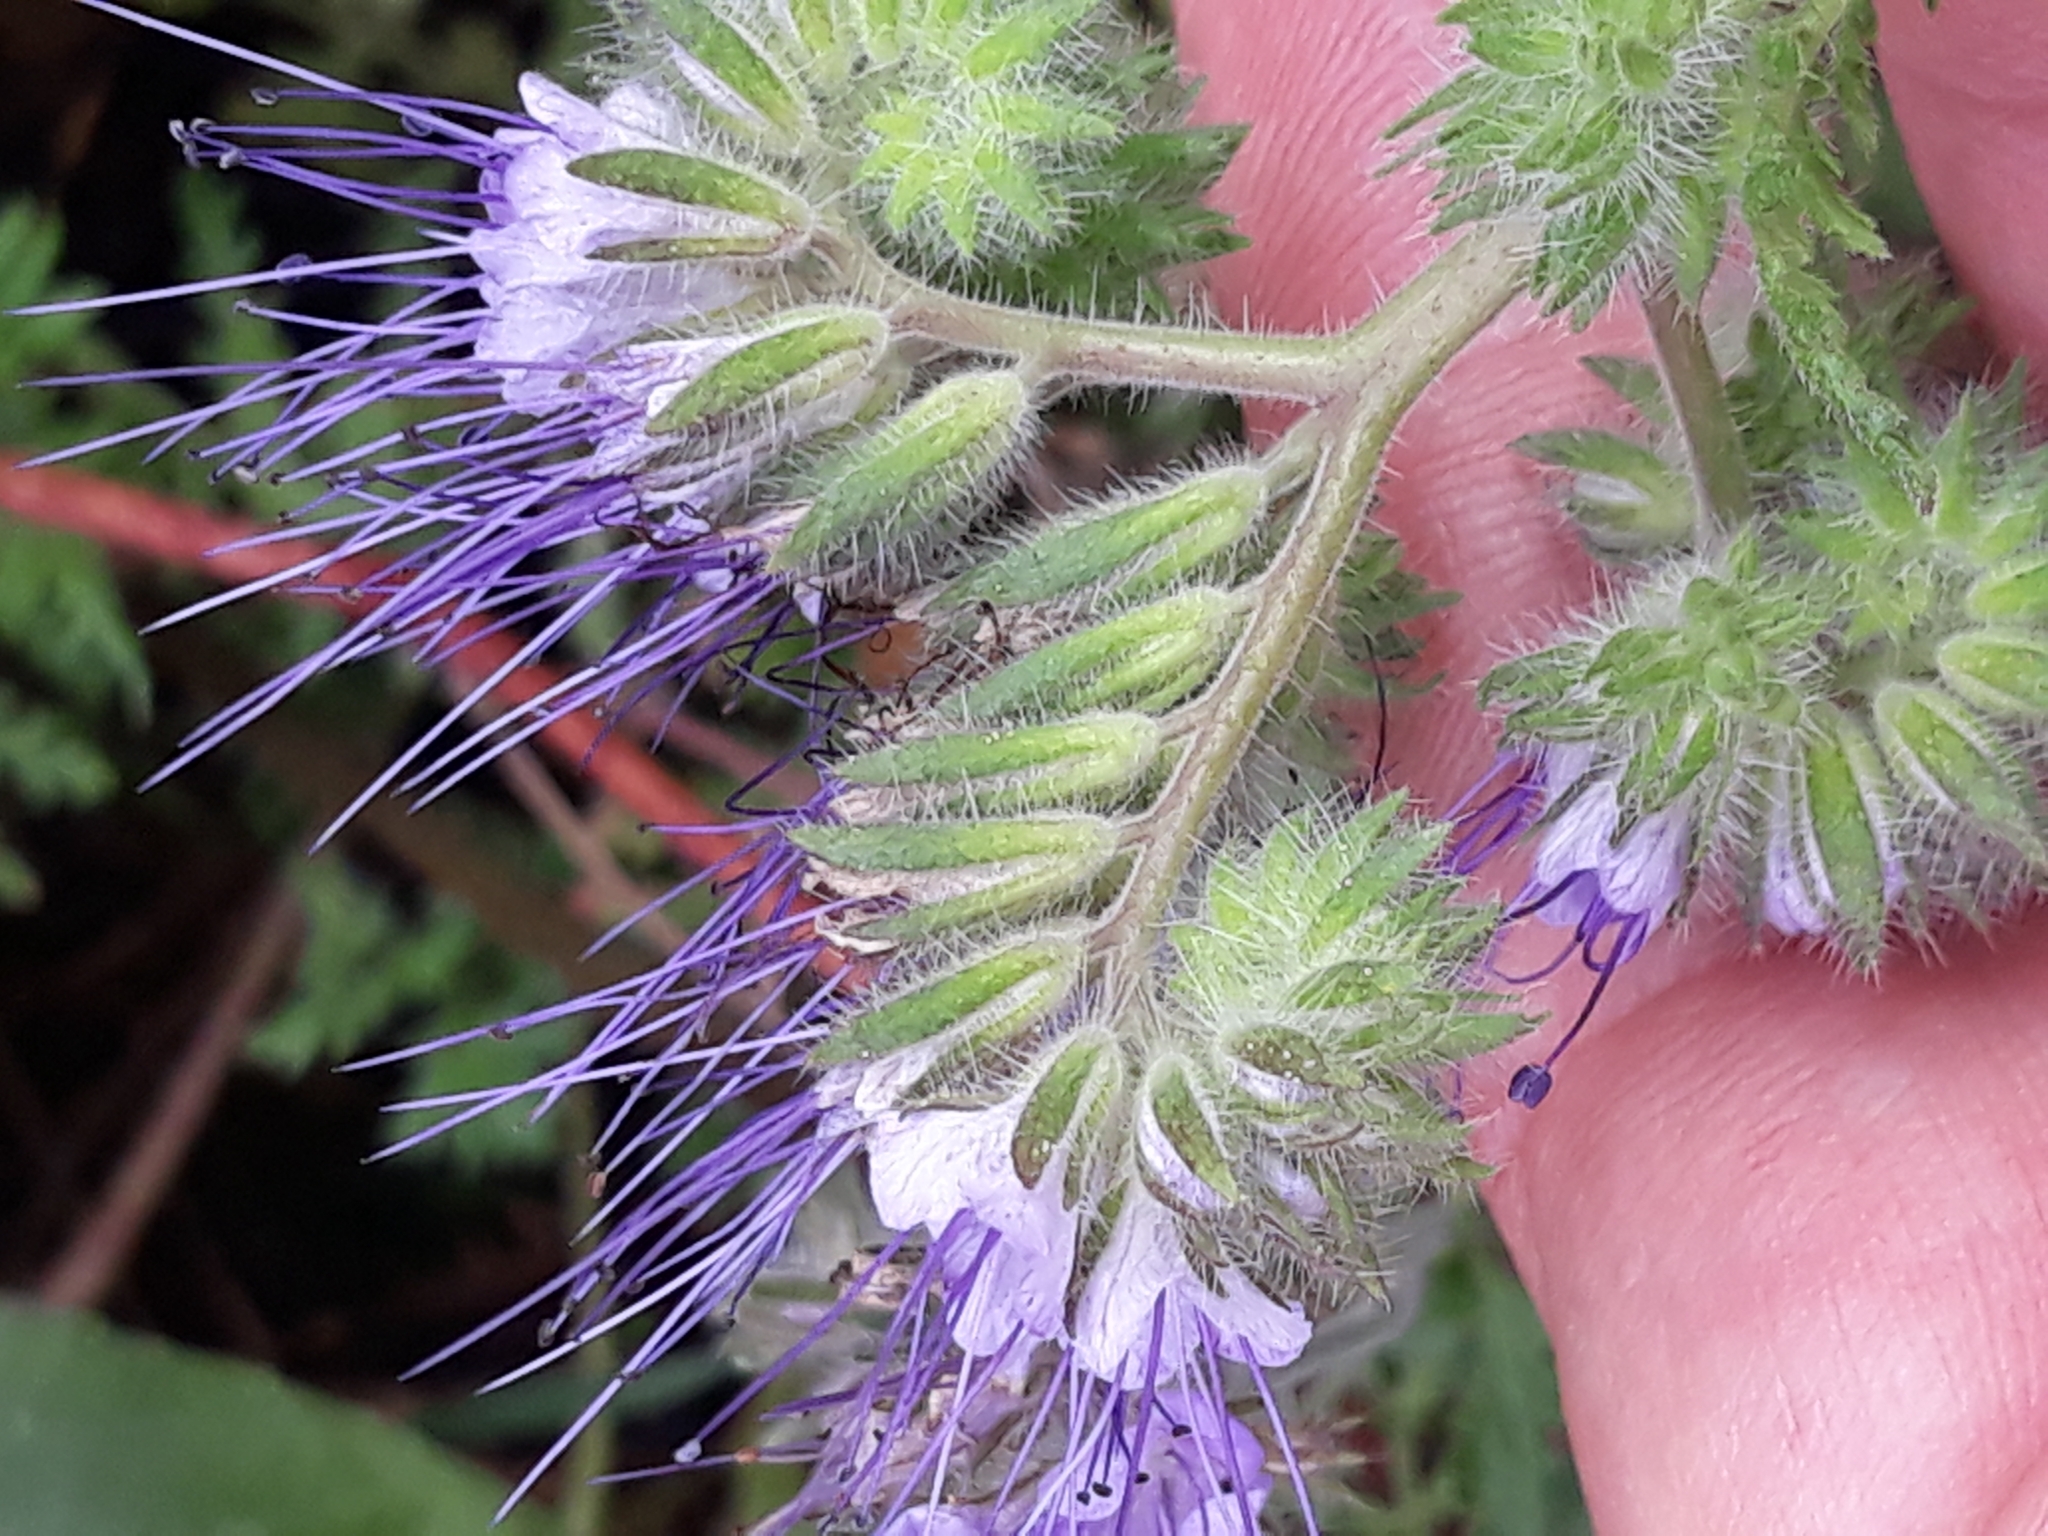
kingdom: Plantae
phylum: Tracheophyta
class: Magnoliopsida
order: Boraginales
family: Hydrophyllaceae
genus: Phacelia
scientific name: Phacelia tanacetifolia
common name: Phacelia
